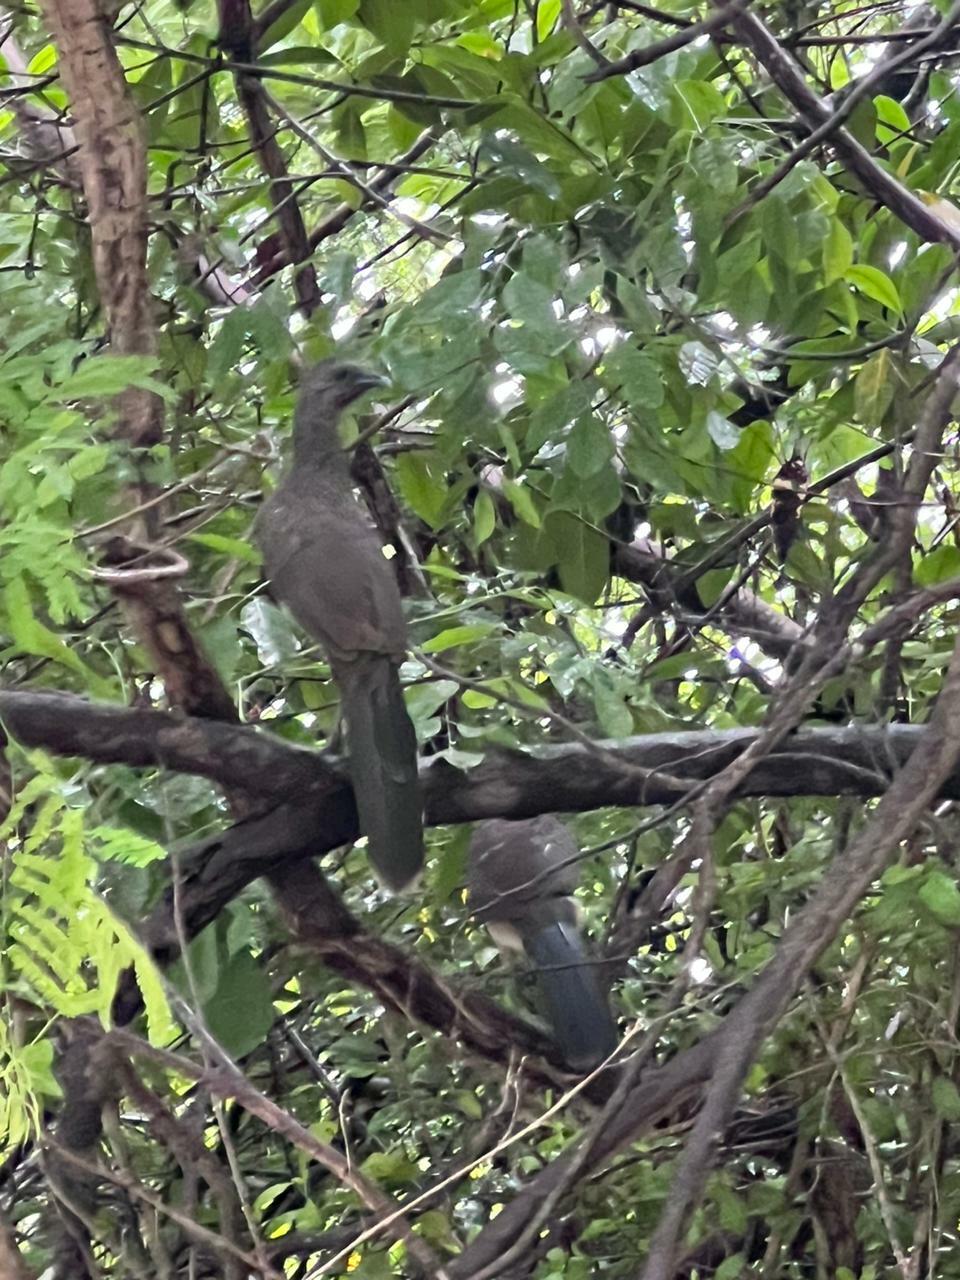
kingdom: Animalia
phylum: Chordata
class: Aves
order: Galliformes
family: Cracidae
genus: Ortalis
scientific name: Ortalis vetula
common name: Plain chachalaca
